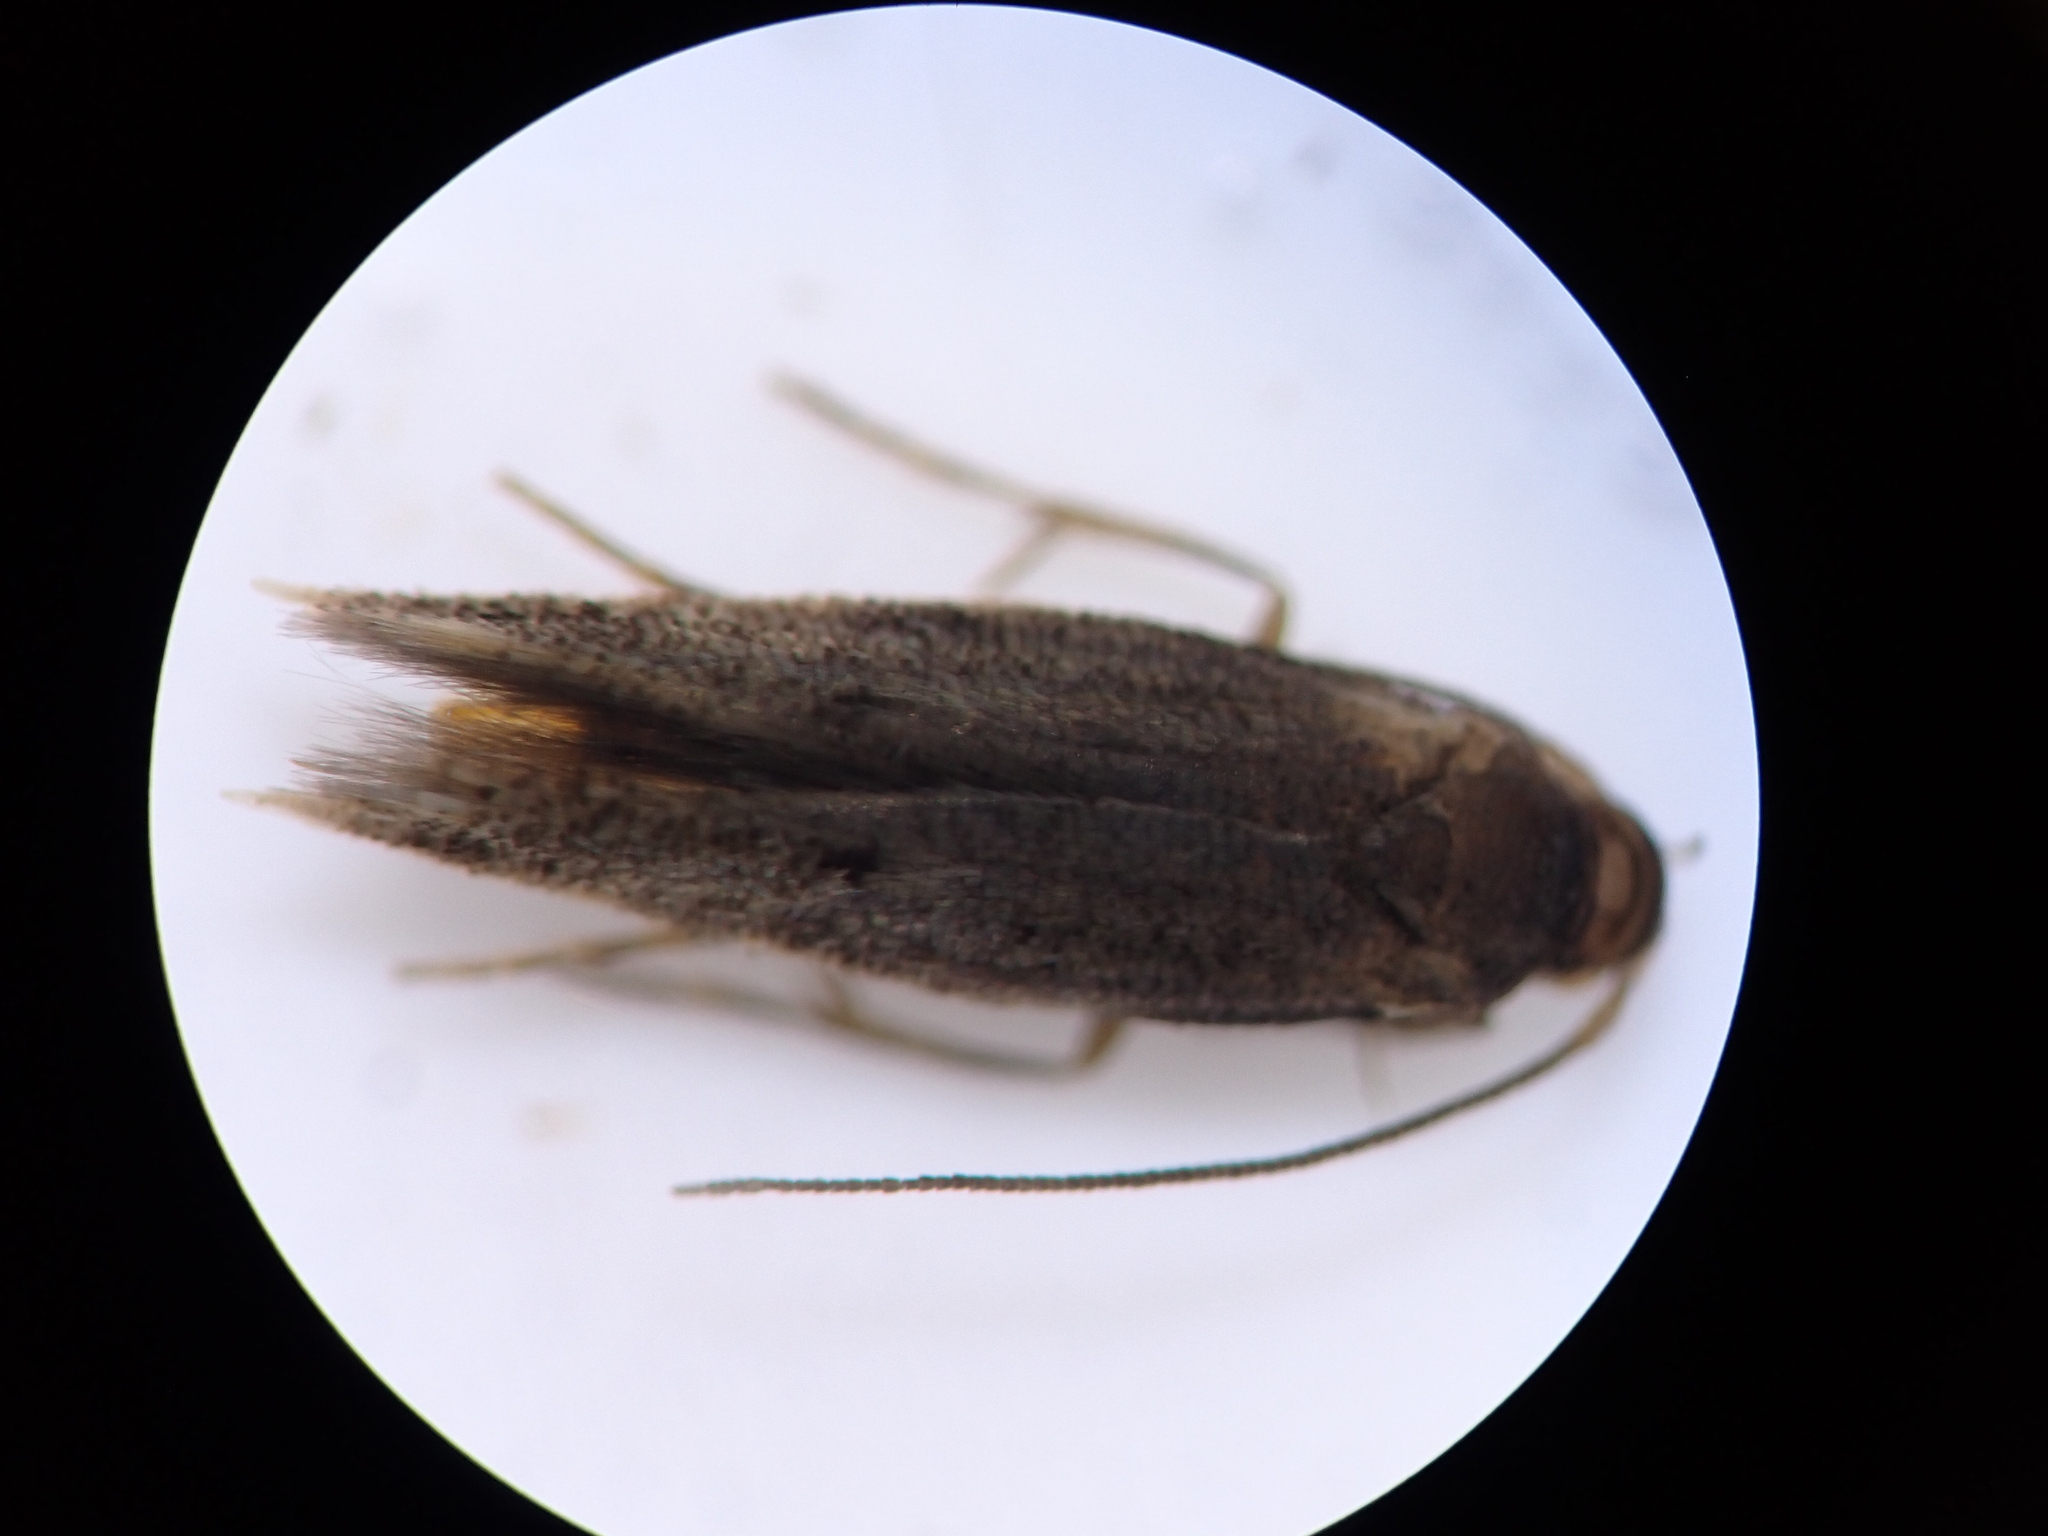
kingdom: Animalia
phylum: Arthropoda
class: Insecta
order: Lepidoptera
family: Tineidae
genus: Opogona
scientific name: Opogona omoscopa
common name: Moth
